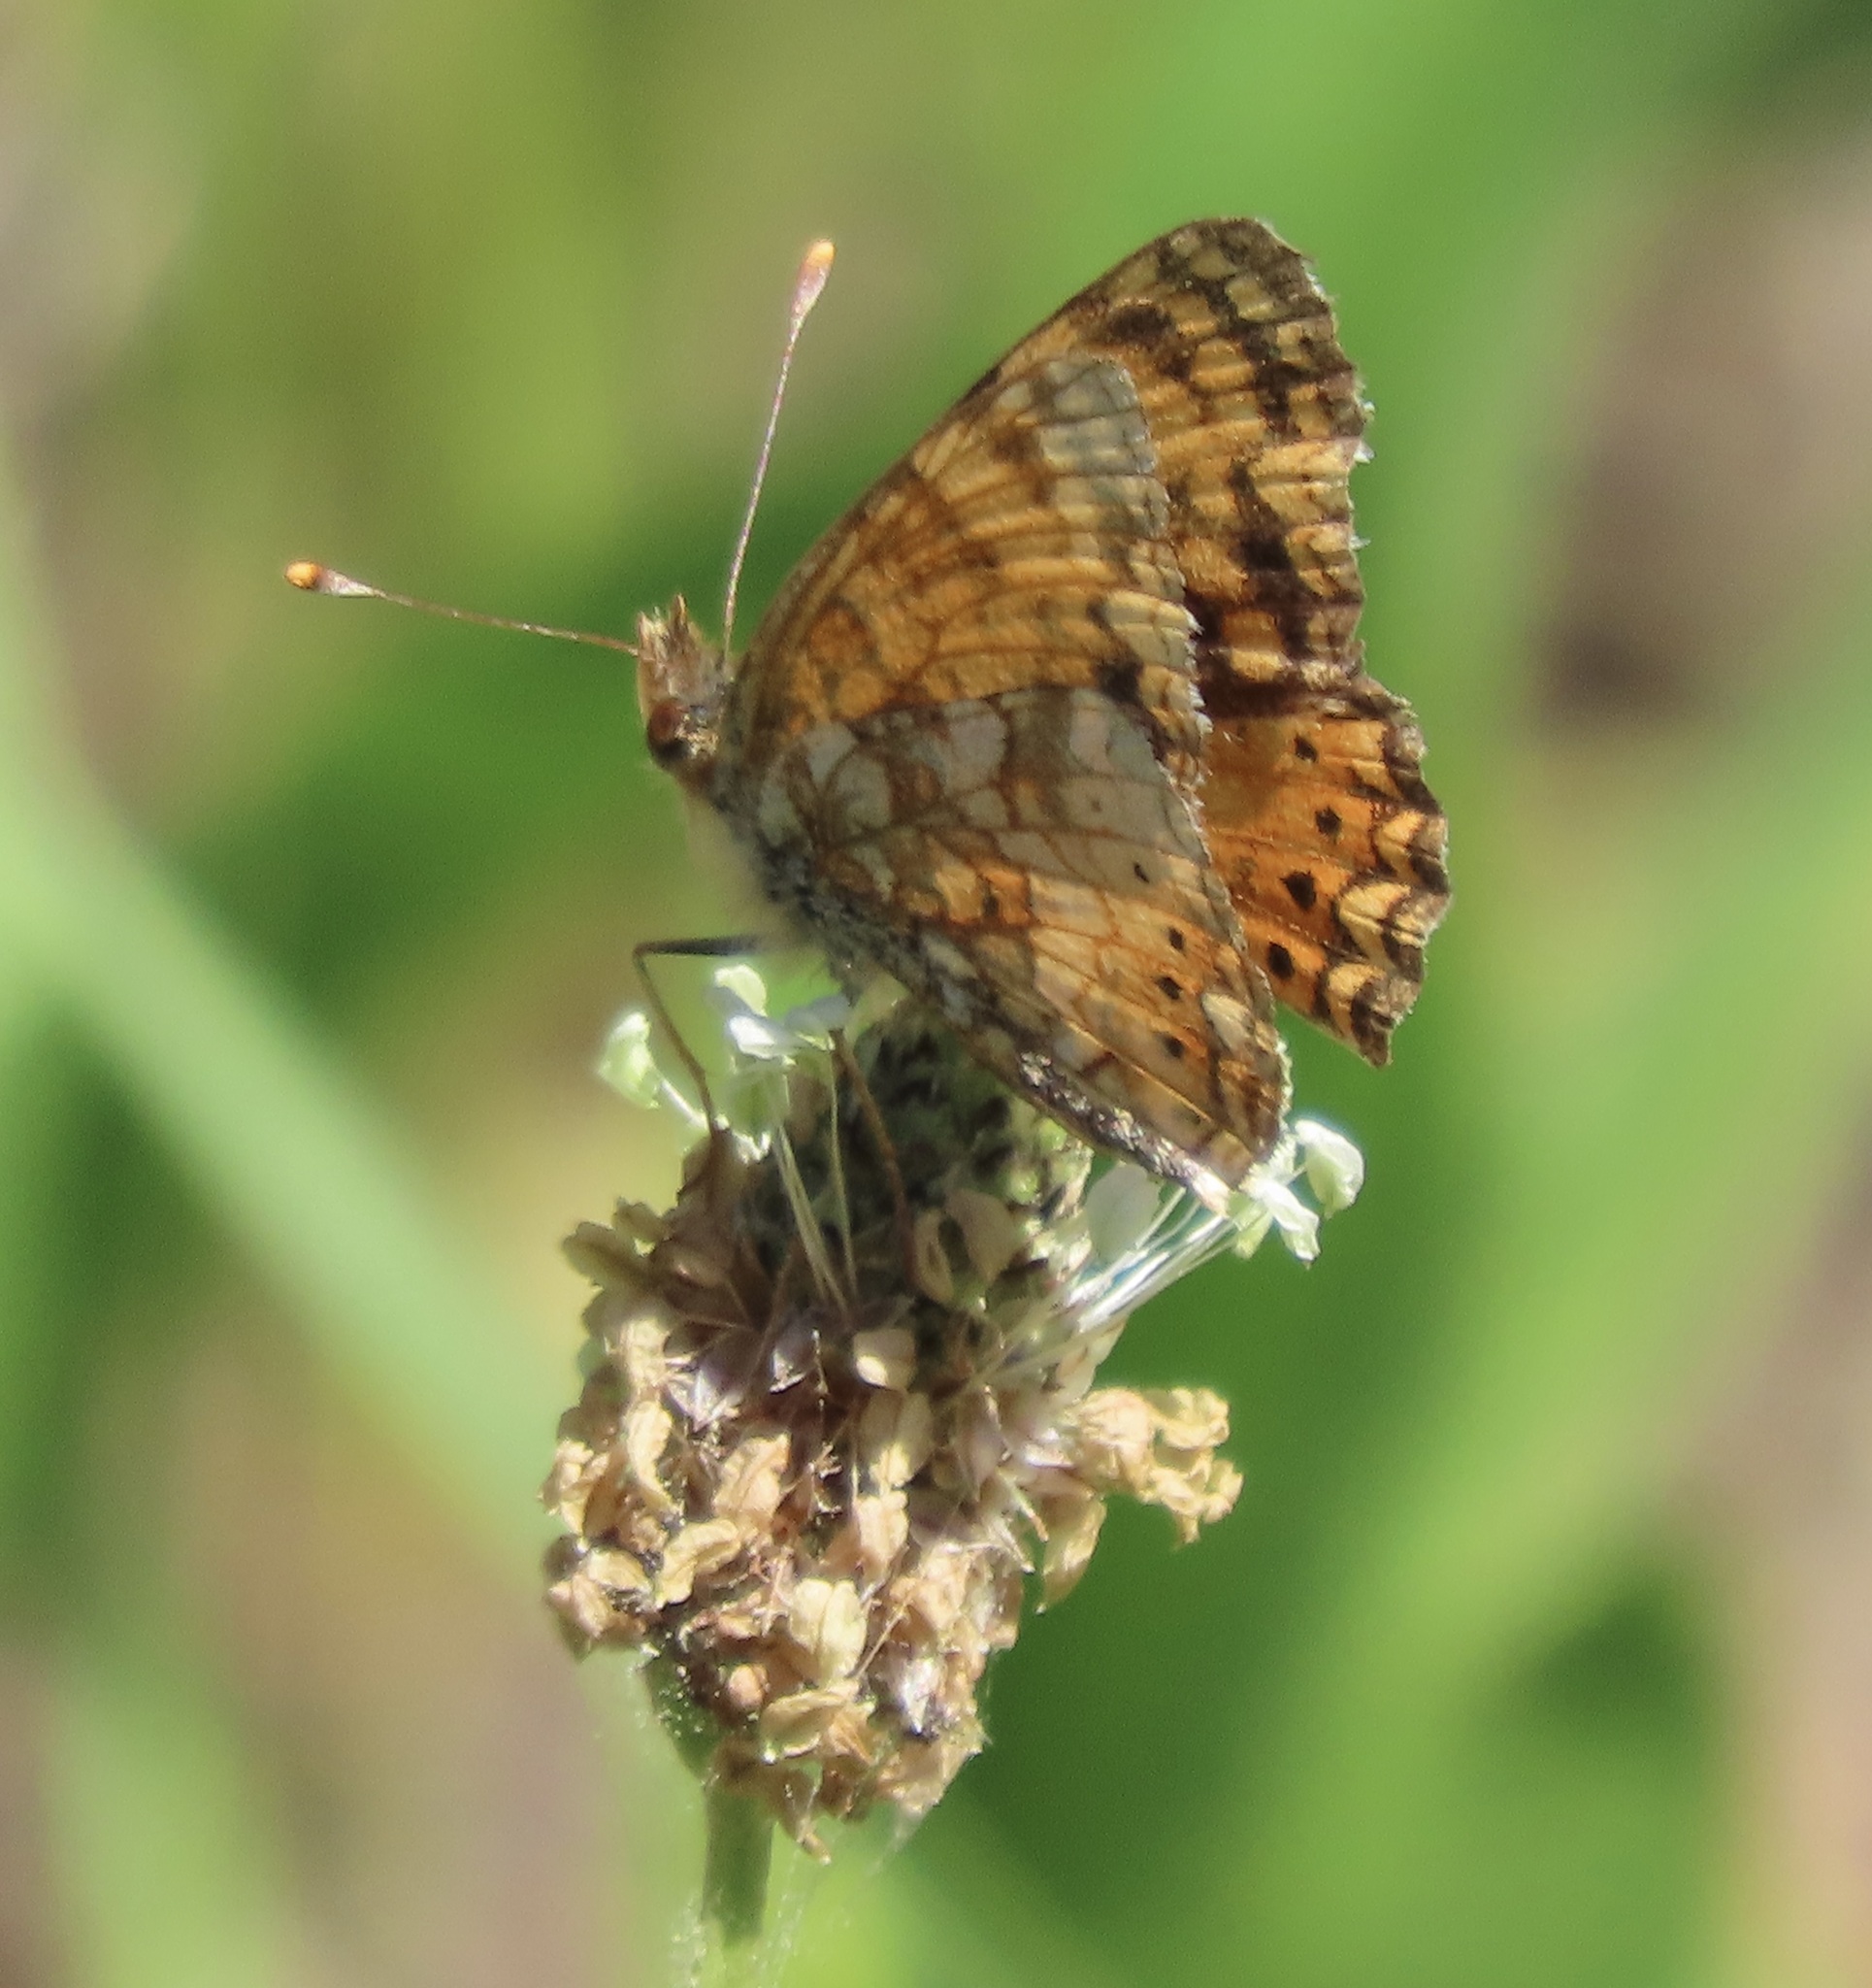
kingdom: Animalia
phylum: Arthropoda
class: Insecta
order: Lepidoptera
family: Nymphalidae
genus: Eresia
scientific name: Eresia aveyrona
